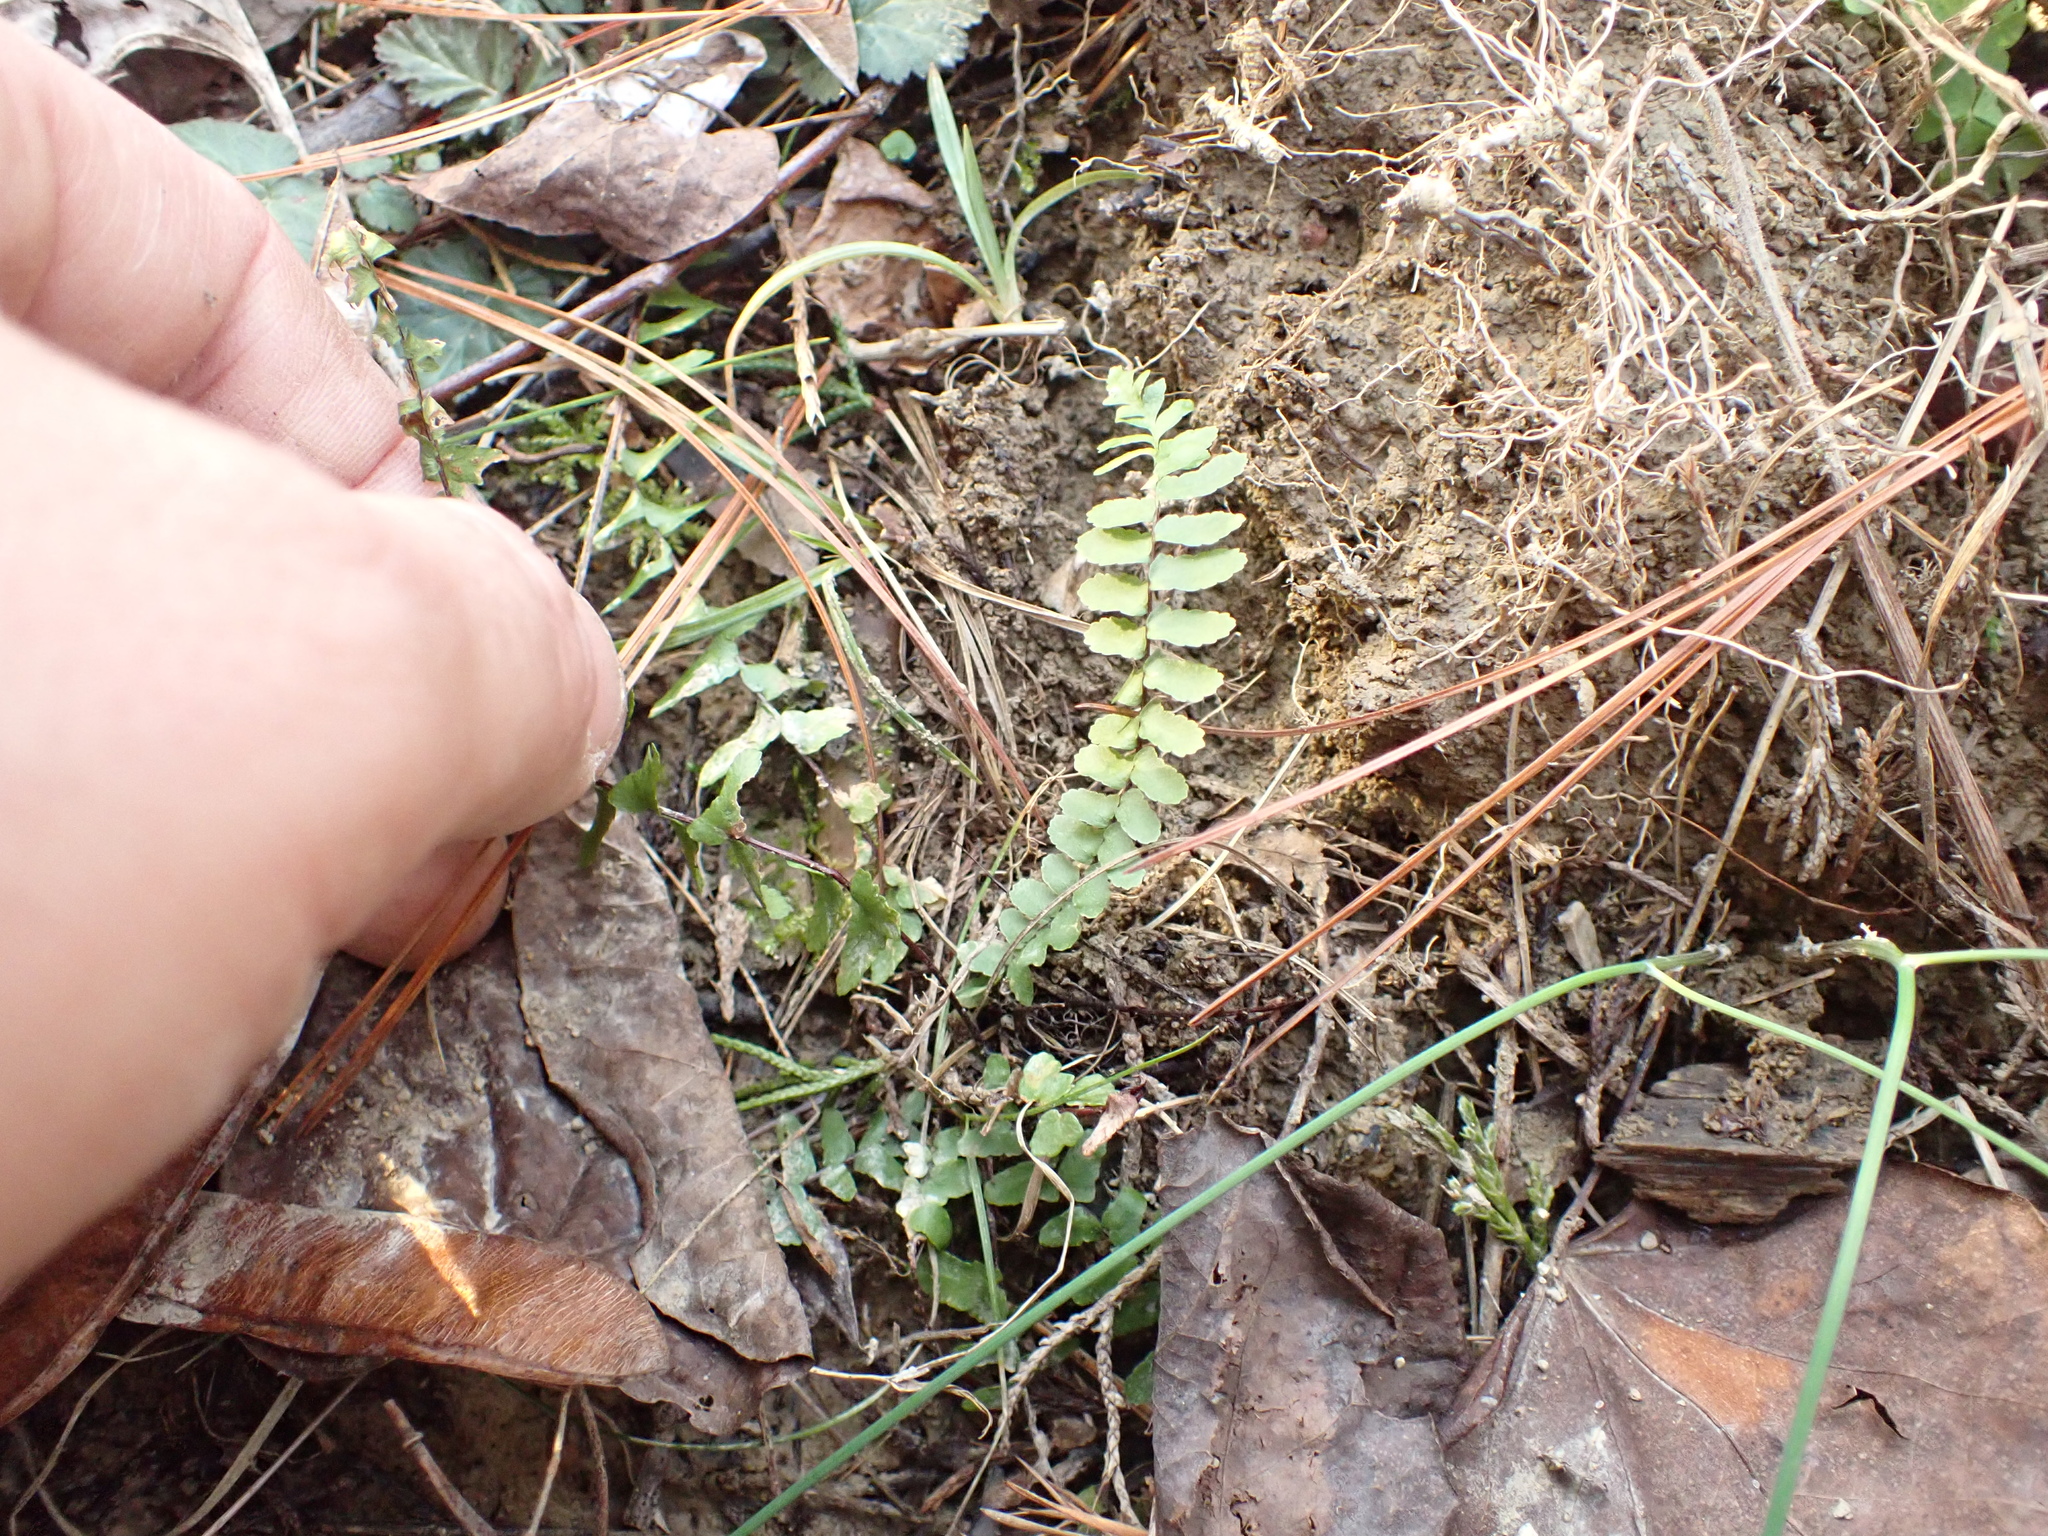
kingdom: Plantae
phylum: Tracheophyta
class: Polypodiopsida
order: Polypodiales
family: Aspleniaceae
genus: Asplenium
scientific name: Asplenium platyneuron
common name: Ebony spleenwort
